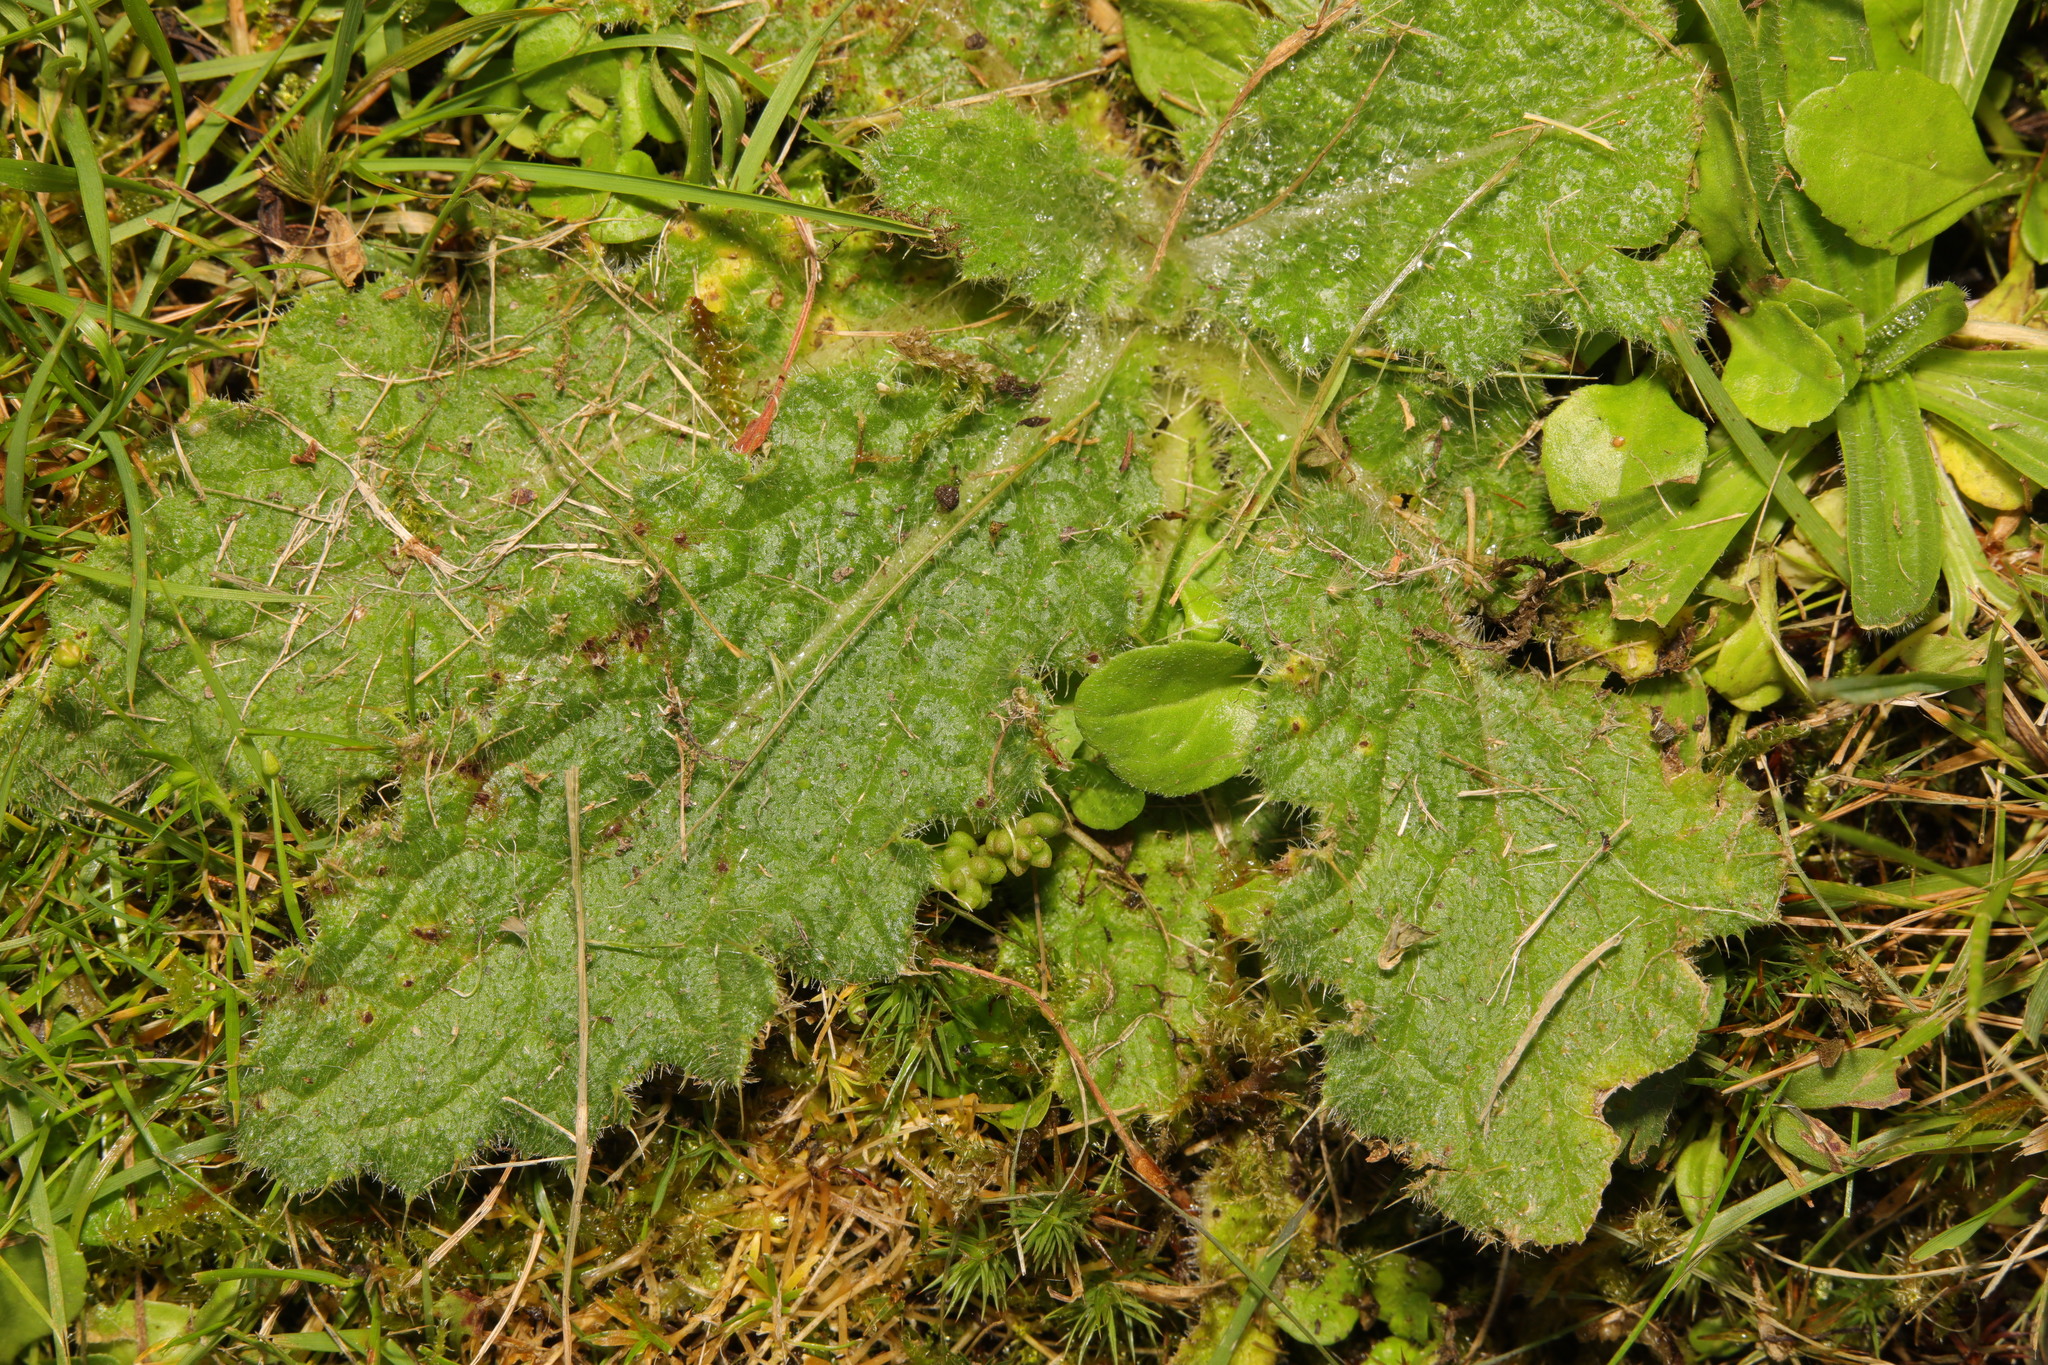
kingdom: Plantae
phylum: Tracheophyta
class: Magnoliopsida
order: Asterales
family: Asteraceae
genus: Cirsium
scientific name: Cirsium vulgare
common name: Bull thistle
